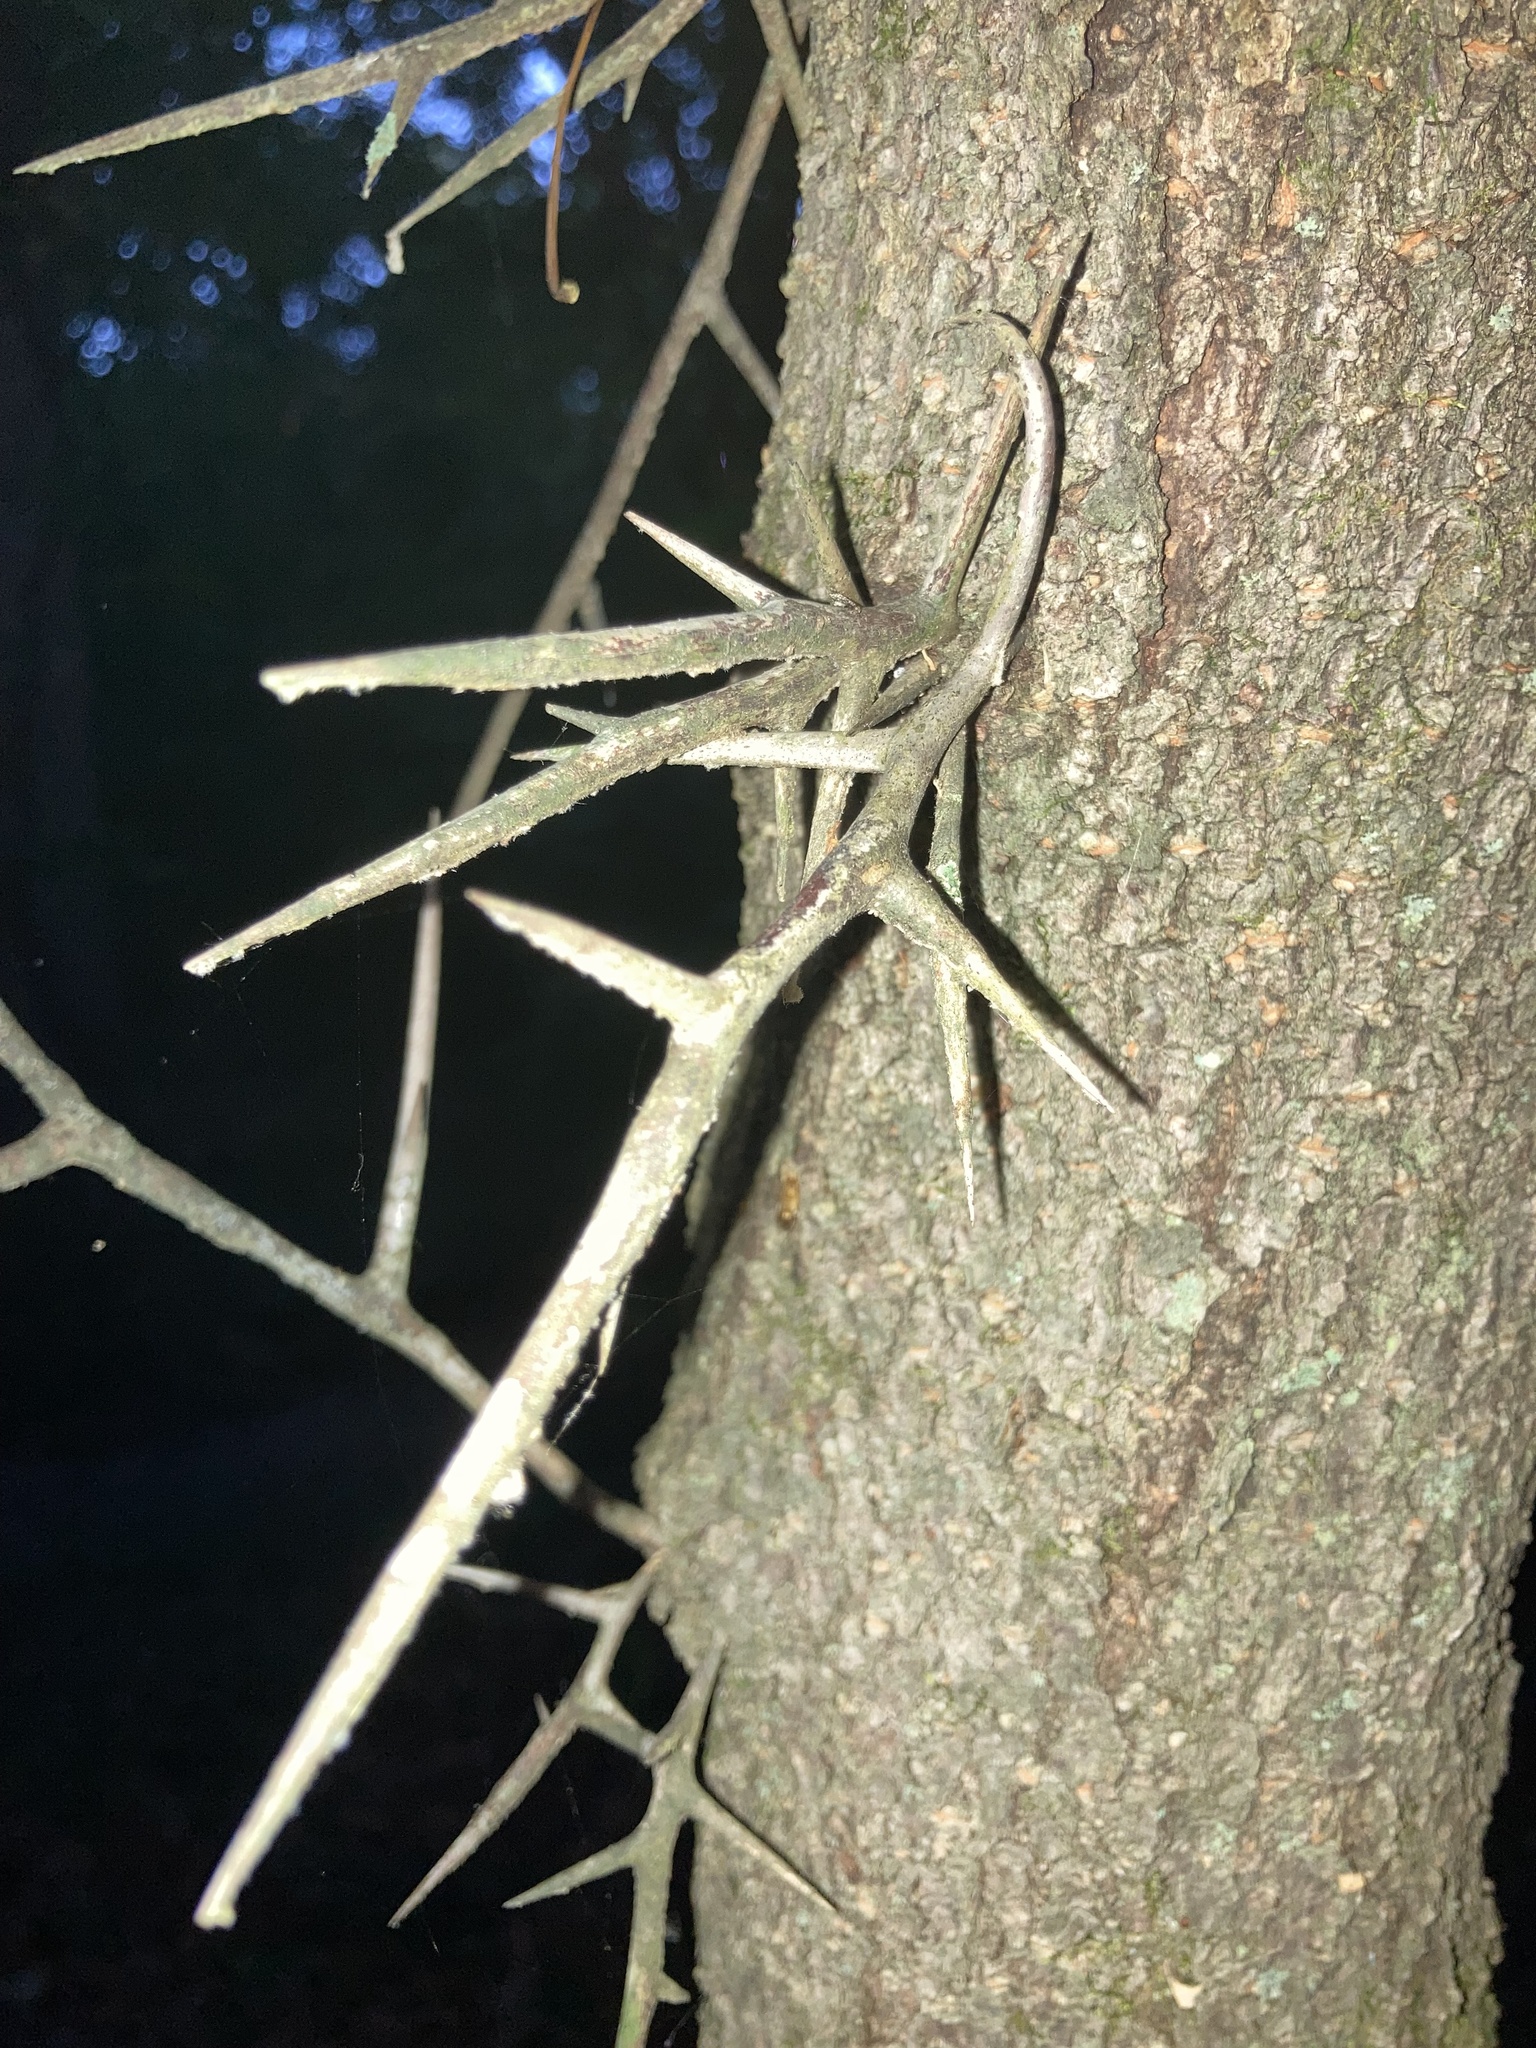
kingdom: Plantae
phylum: Tracheophyta
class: Magnoliopsida
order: Fabales
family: Fabaceae
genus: Gleditsia
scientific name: Gleditsia triacanthos
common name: Common honeylocust
